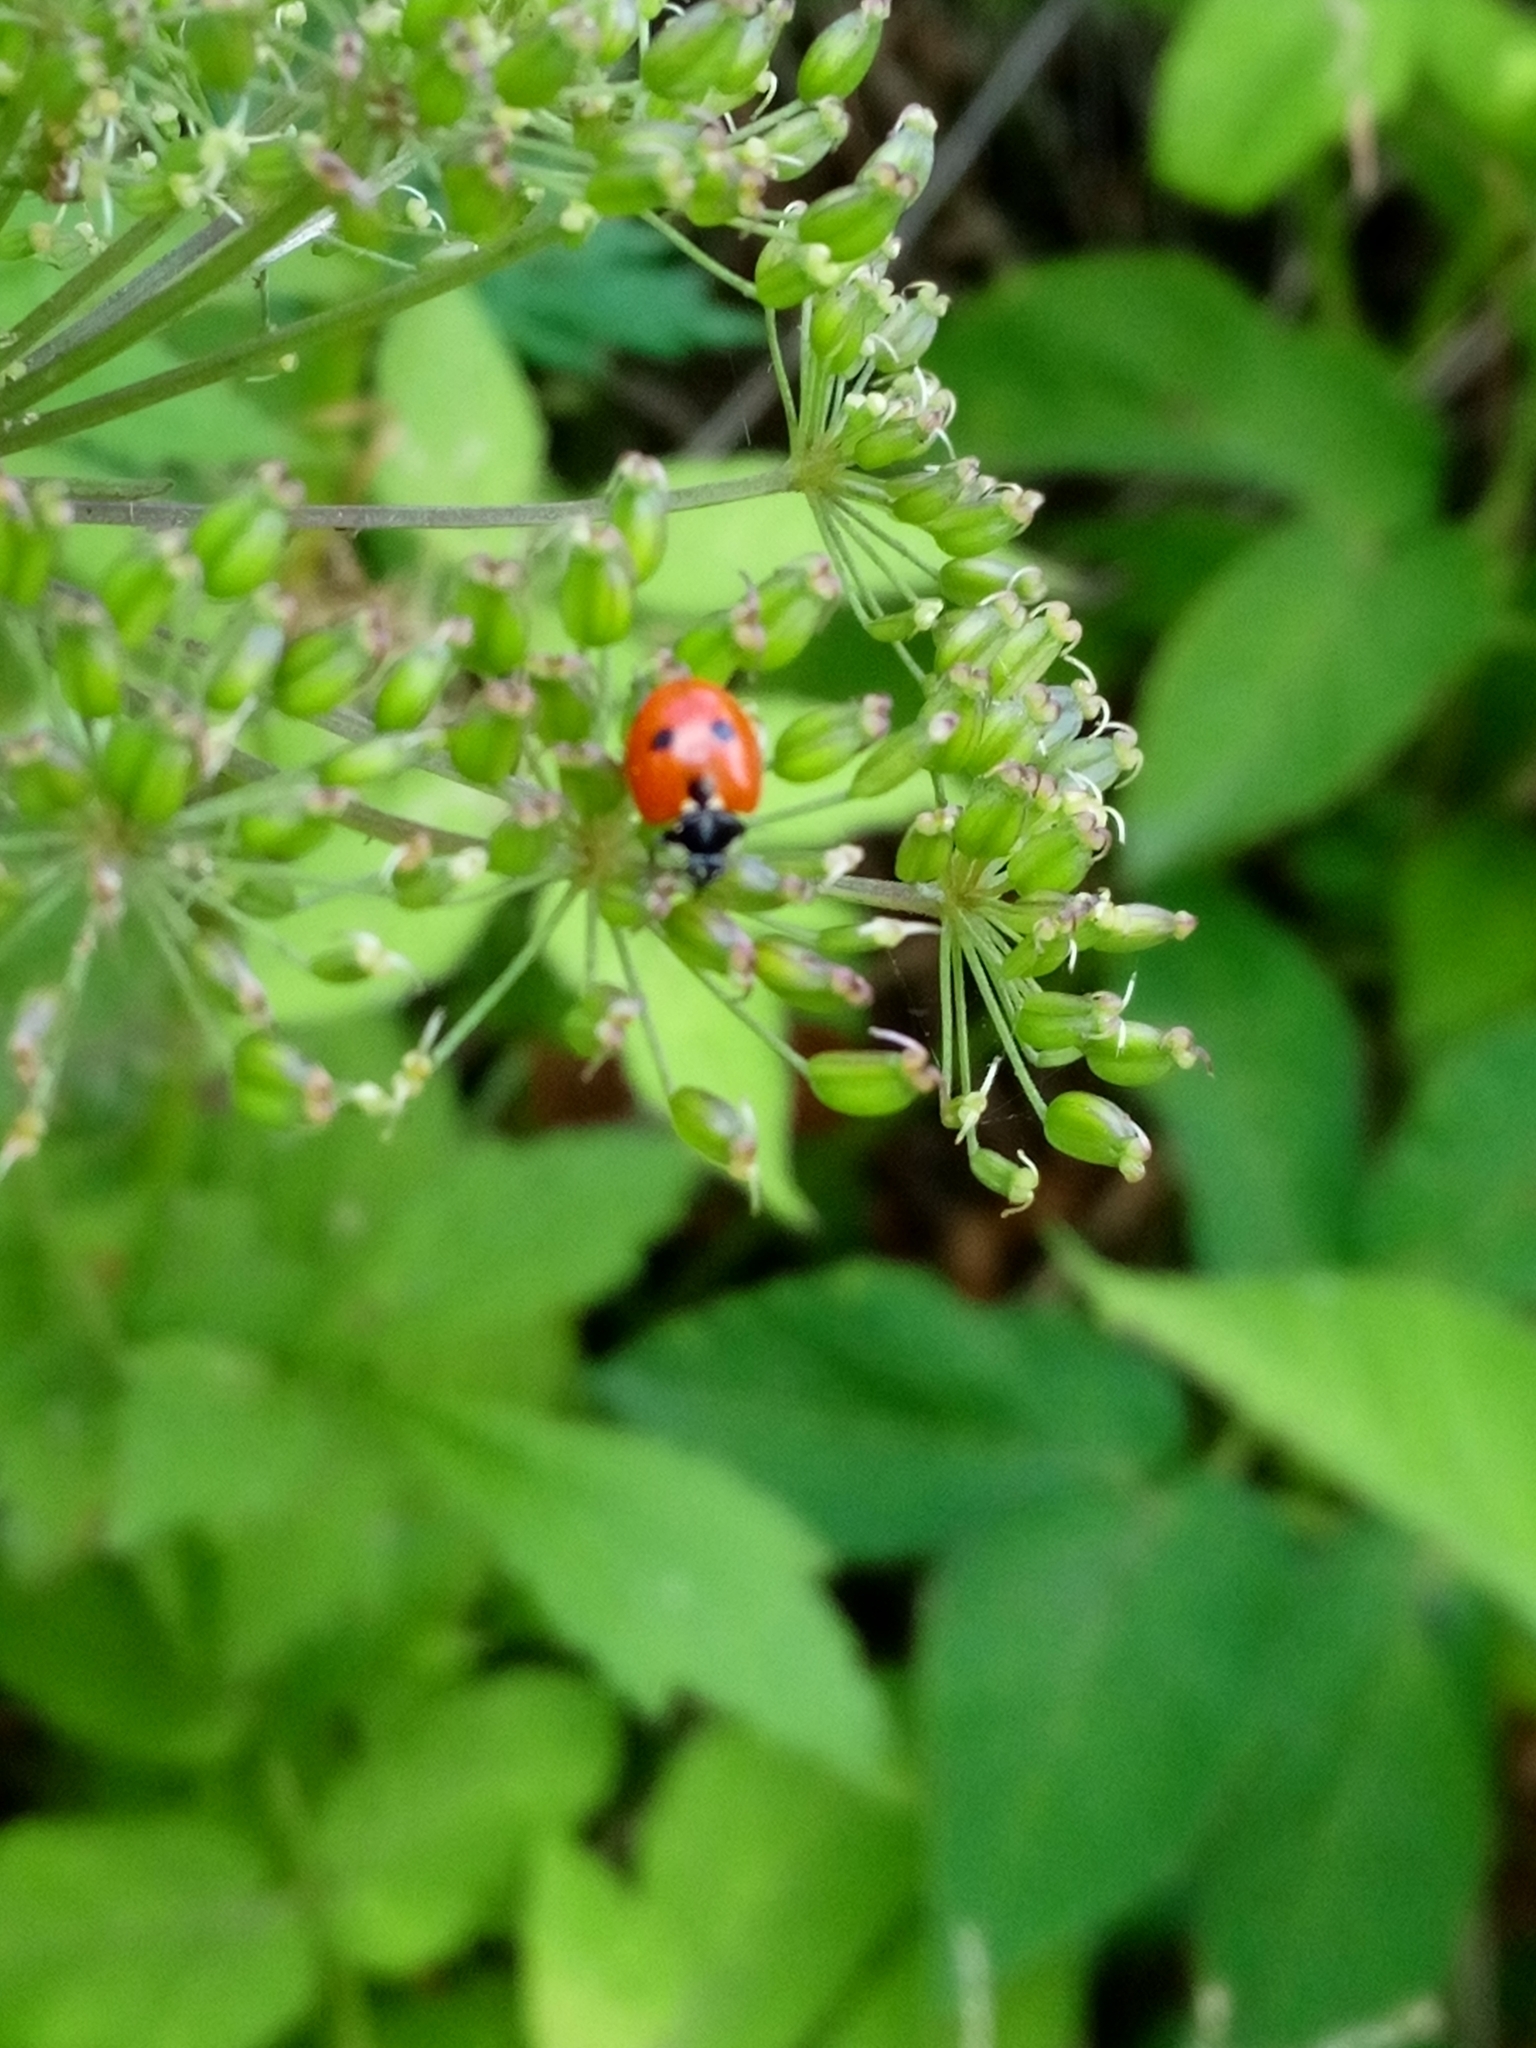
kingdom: Animalia
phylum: Arthropoda
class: Insecta
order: Coleoptera
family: Coccinellidae
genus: Coccinella
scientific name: Coccinella quinquepunctata
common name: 5-spot ladybird
